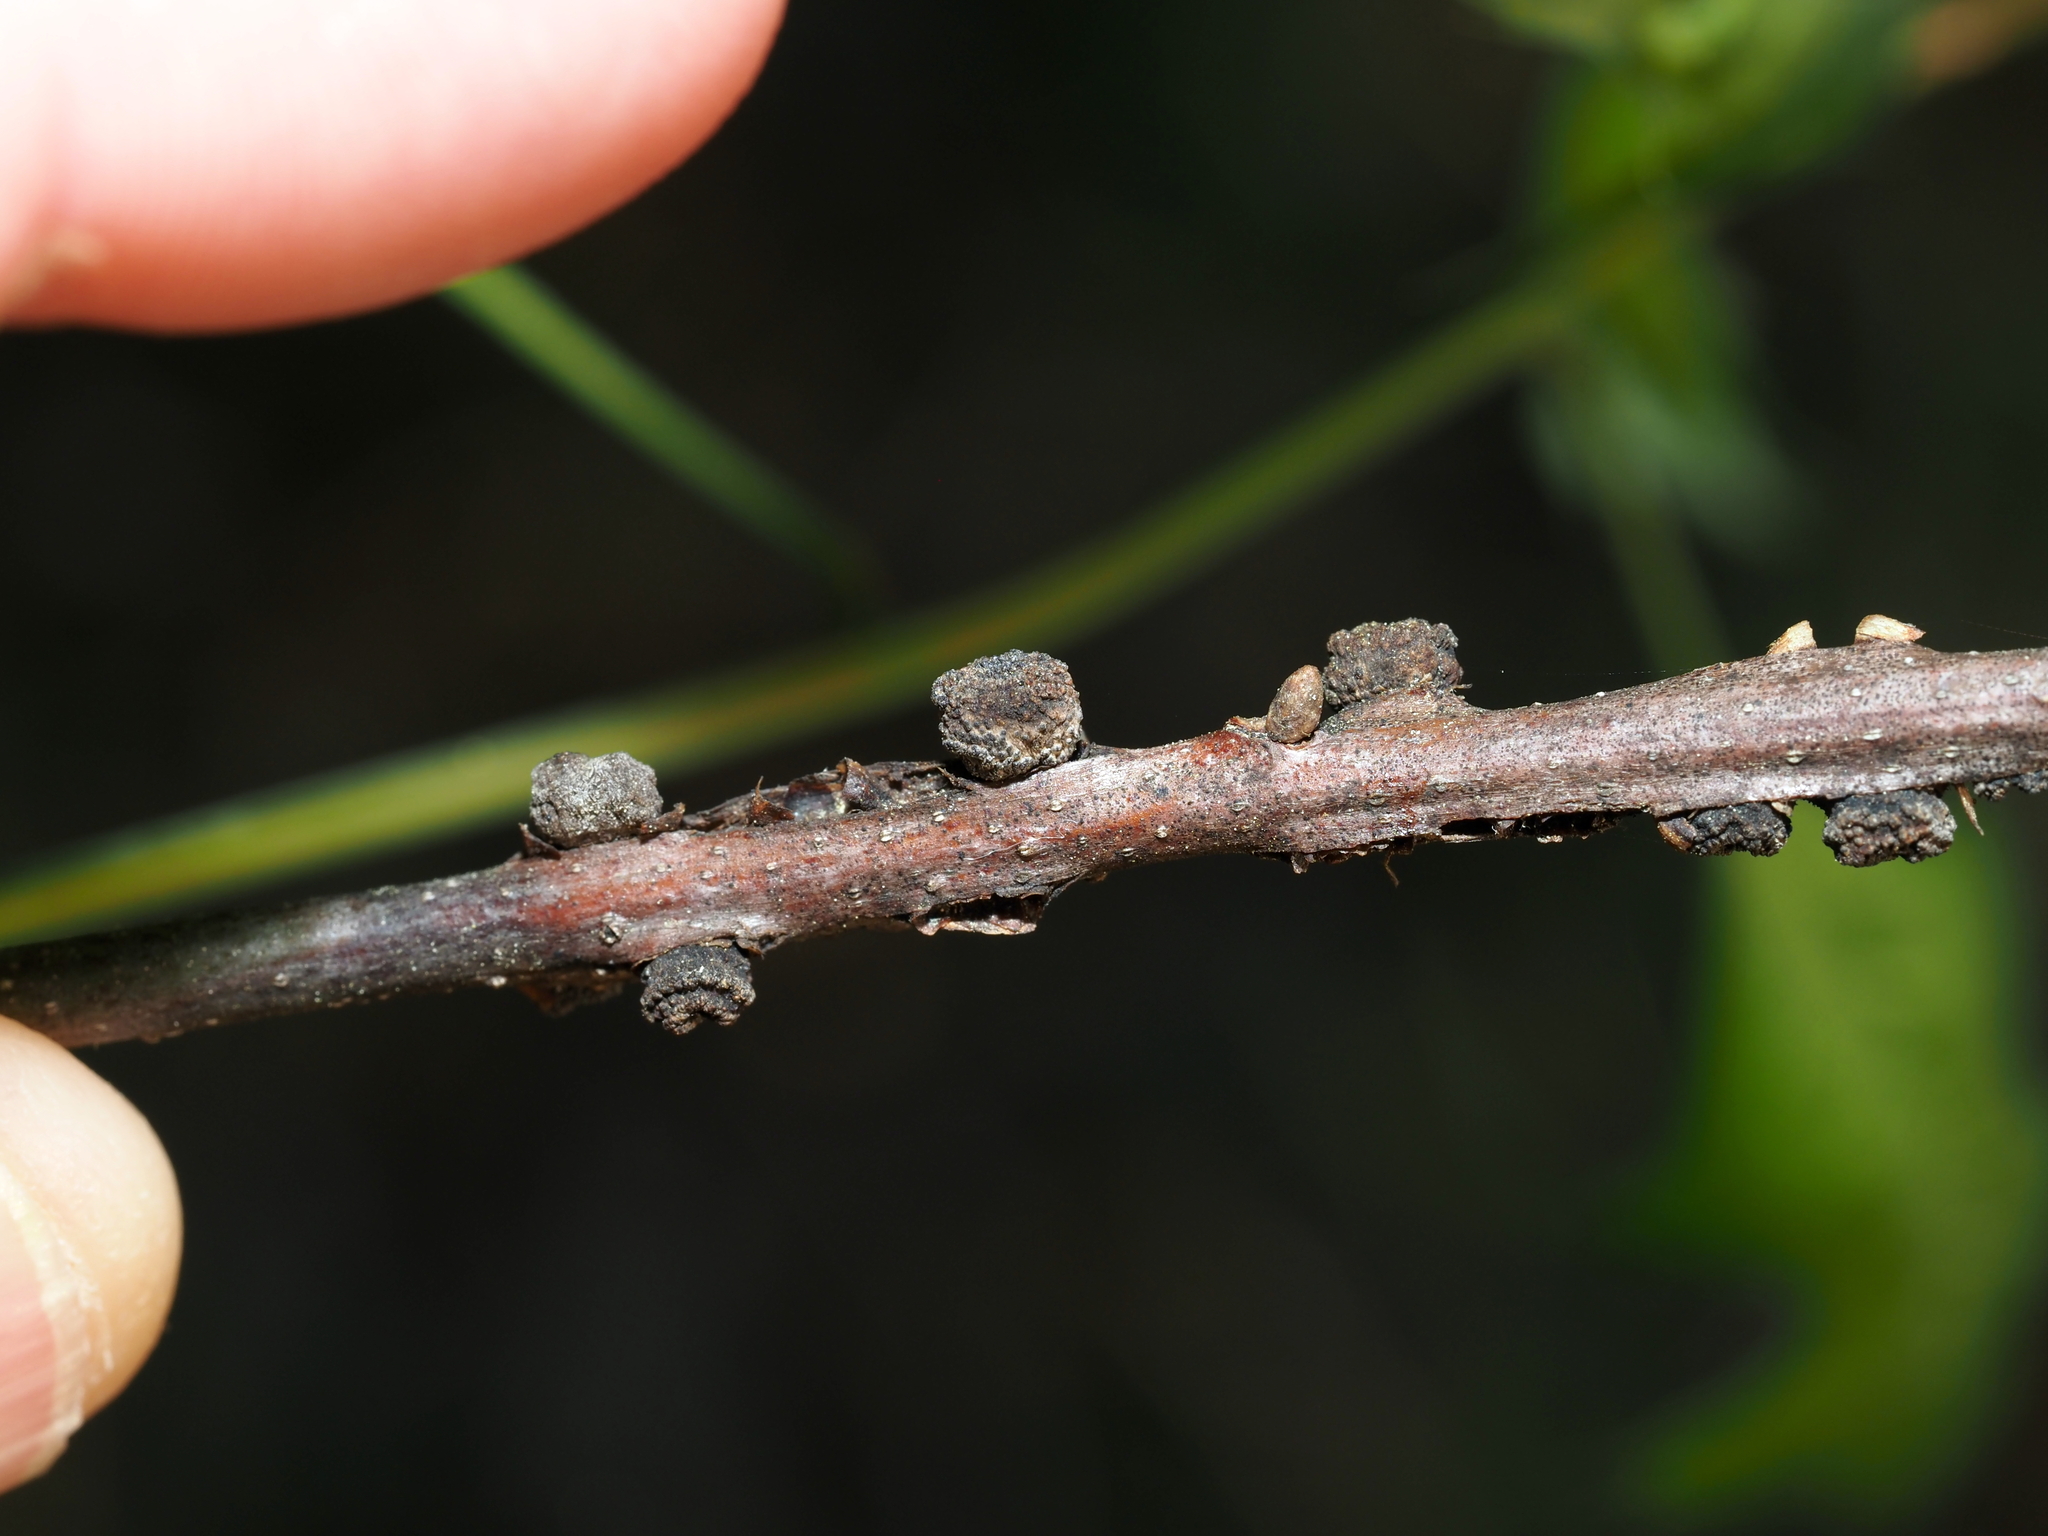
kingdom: Animalia
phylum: Arthropoda
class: Insecta
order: Hymenoptera
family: Cynipidae
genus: Kokkocynips
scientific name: Kokkocynips difficilis
